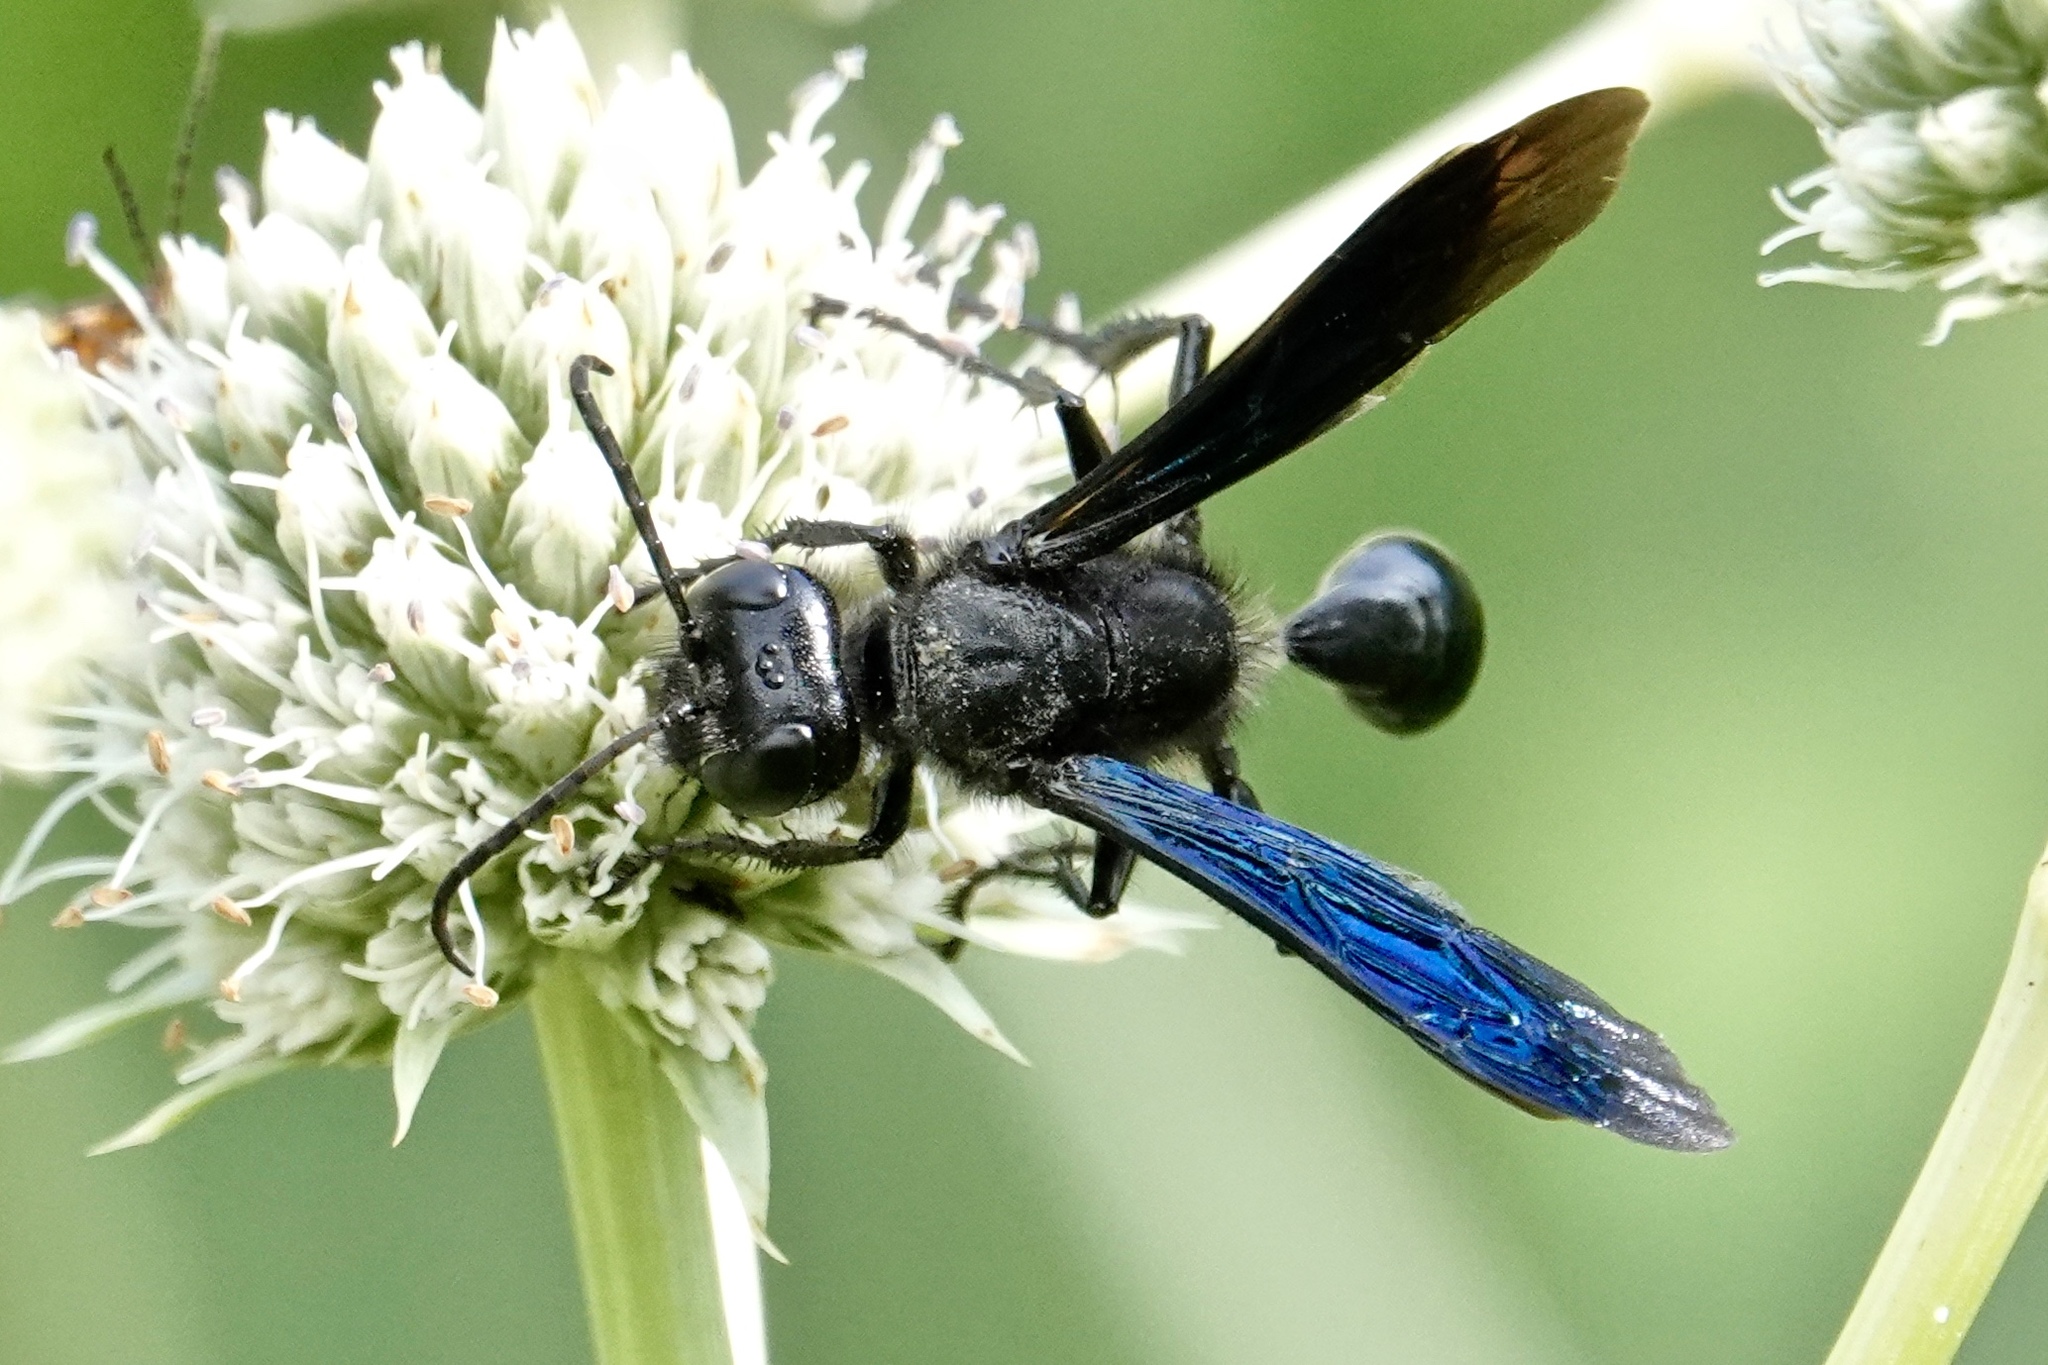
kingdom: Animalia
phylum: Arthropoda
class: Insecta
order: Hymenoptera
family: Sphecidae
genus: Isodontia
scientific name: Isodontia philadelphica
